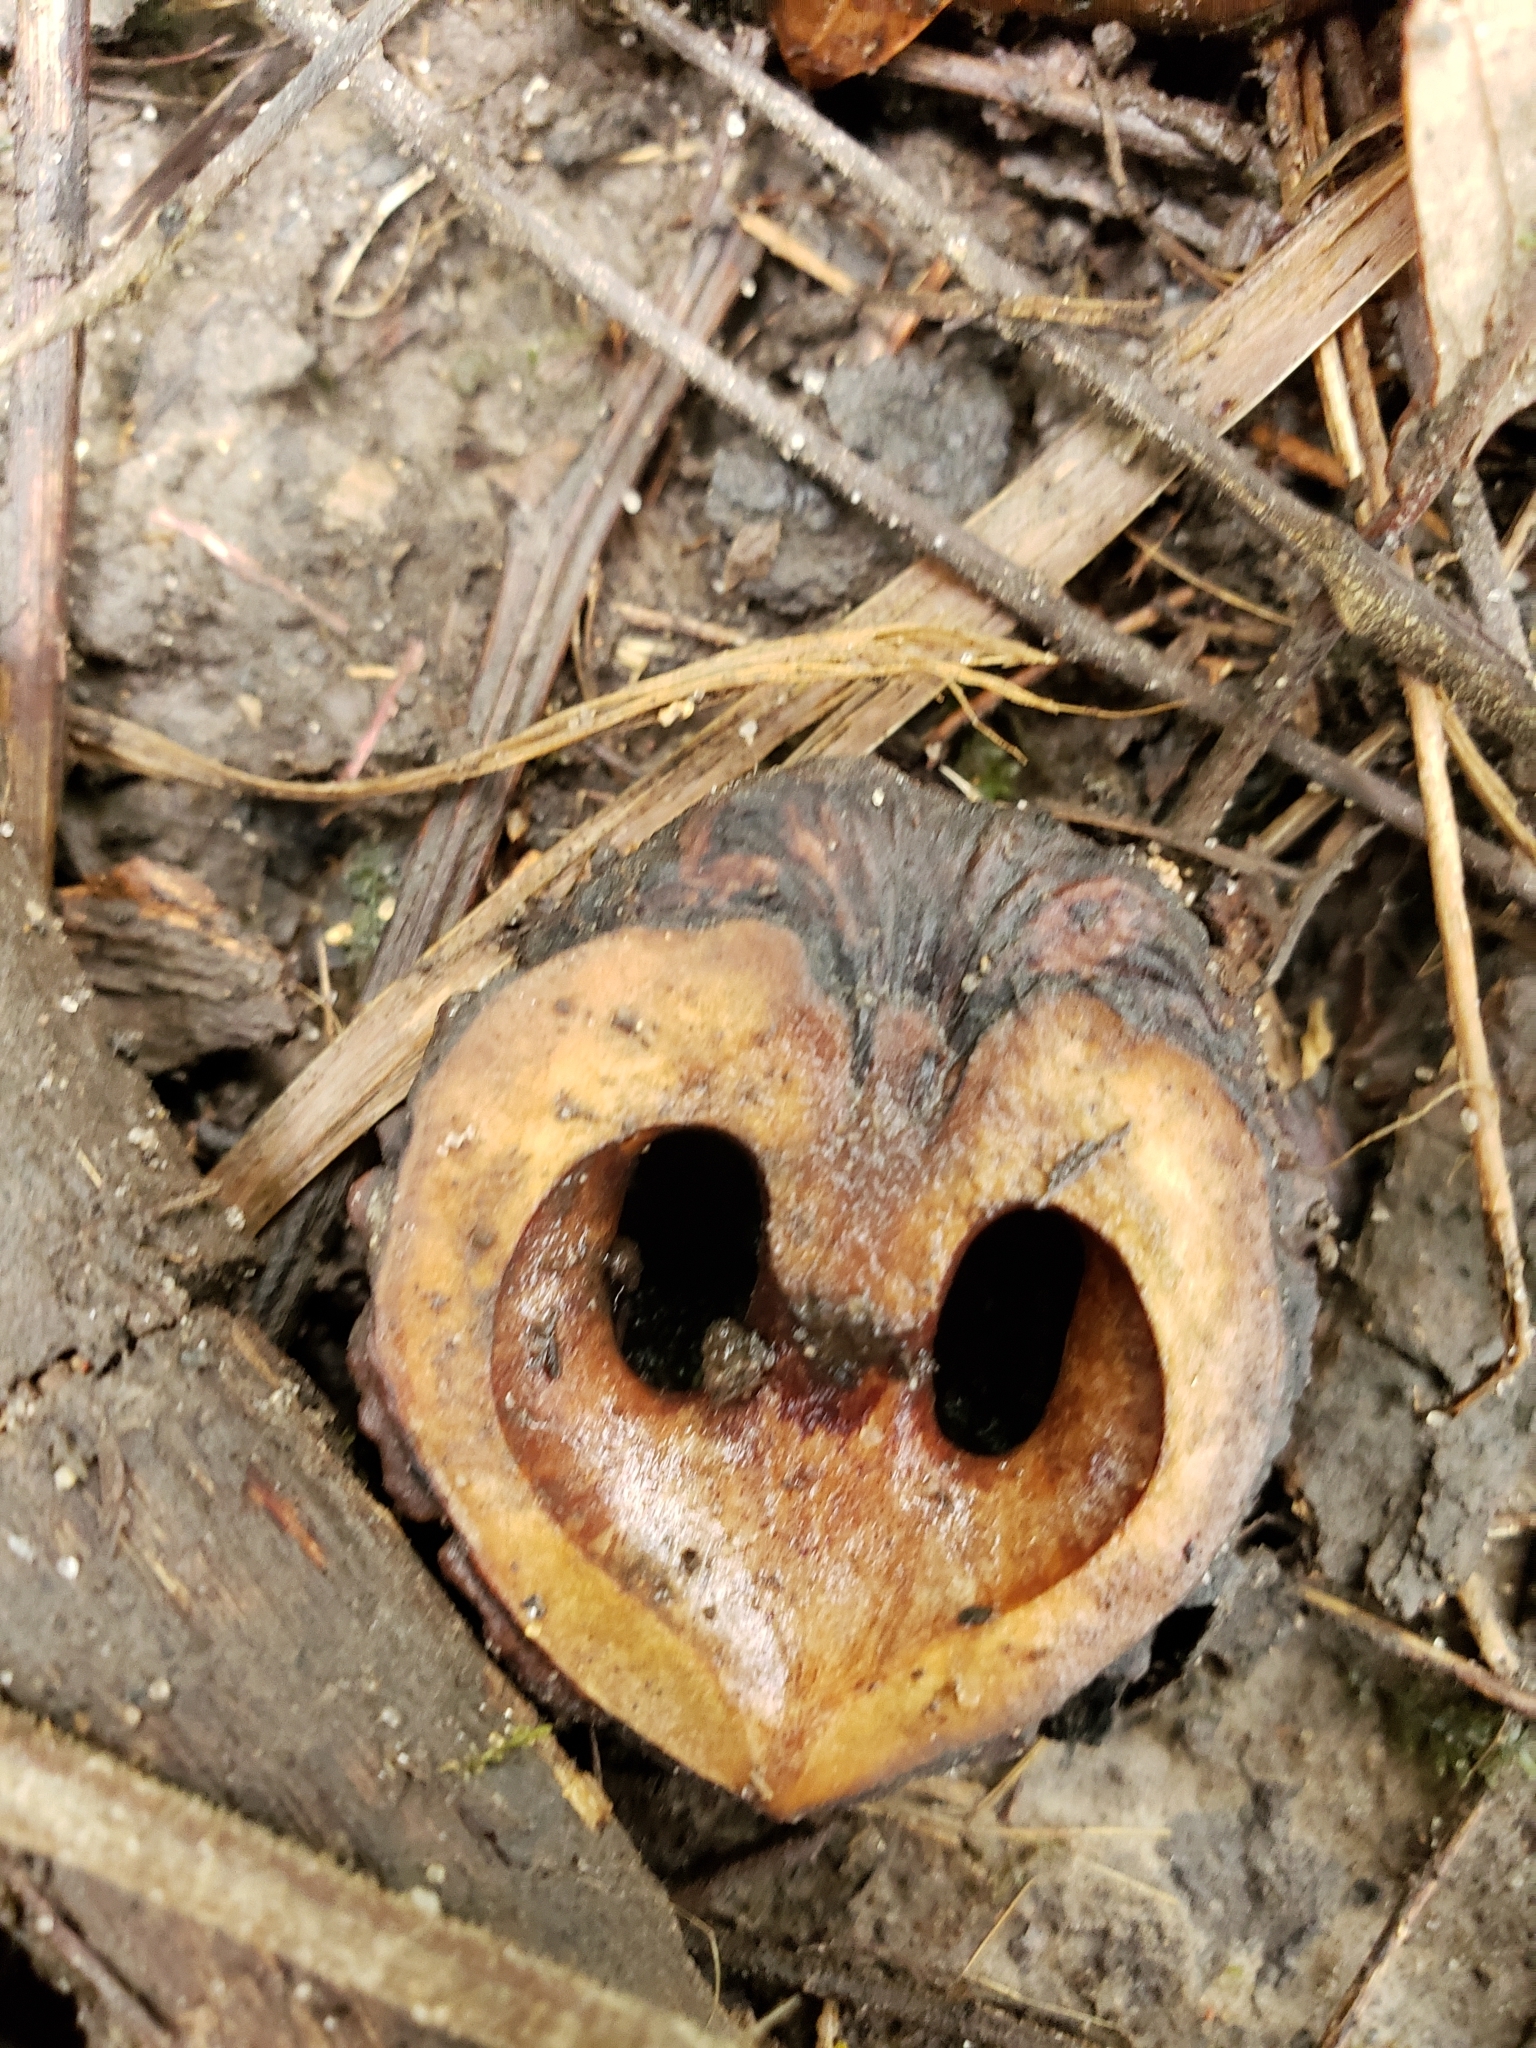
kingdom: Plantae
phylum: Tracheophyta
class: Magnoliopsida
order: Fagales
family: Juglandaceae
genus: Juglans
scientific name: Juglans nigra
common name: Black walnut
